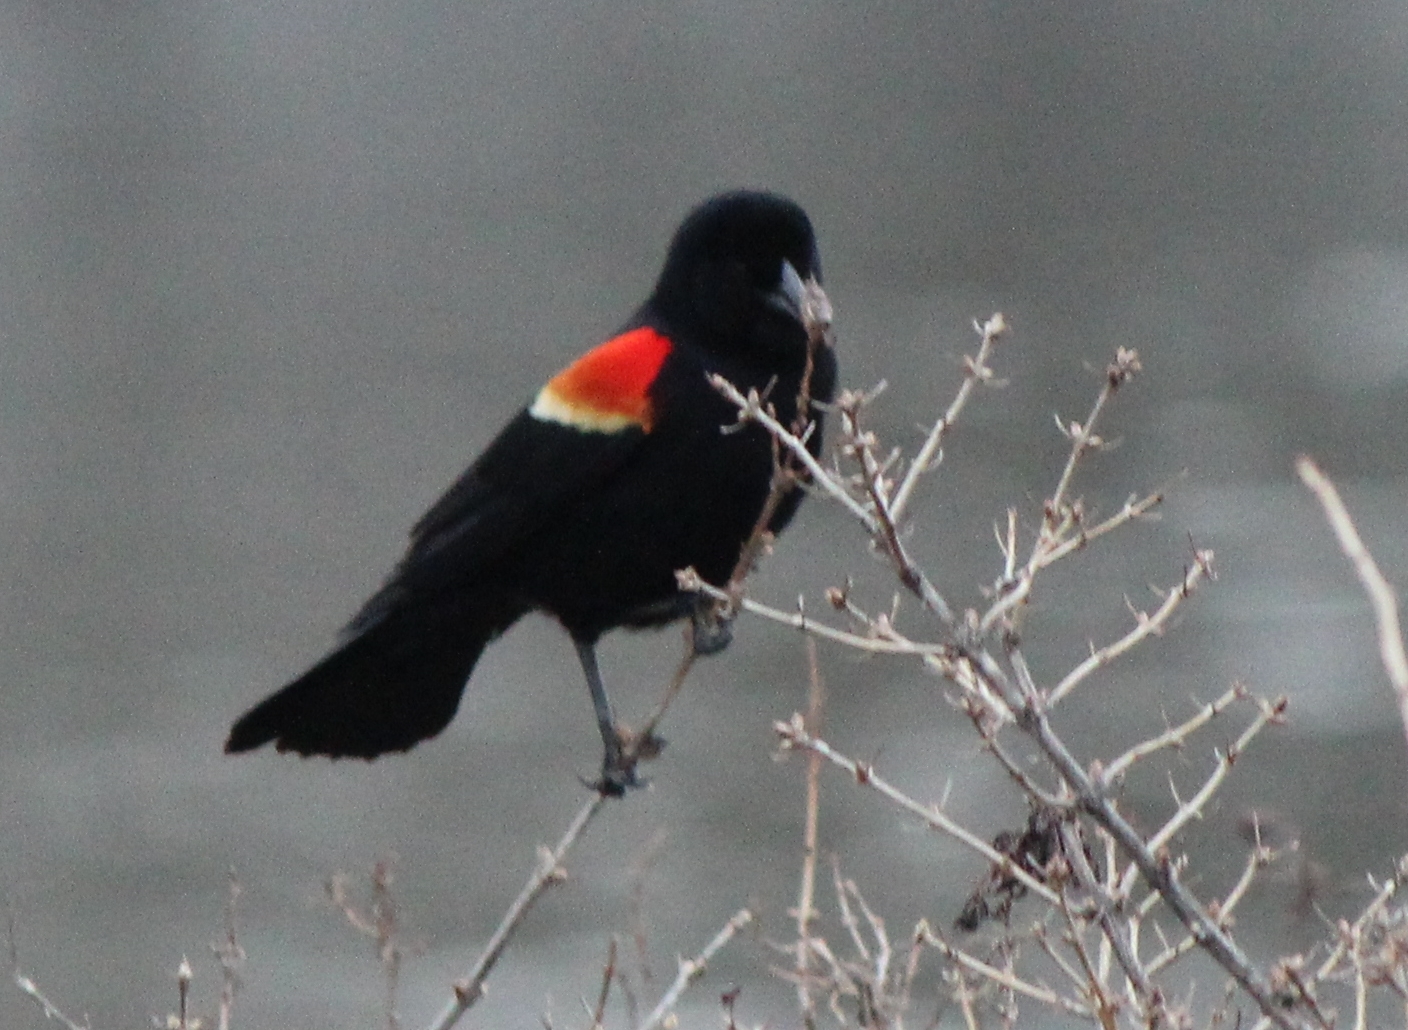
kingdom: Animalia
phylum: Chordata
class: Aves
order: Passeriformes
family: Icteridae
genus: Agelaius
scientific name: Agelaius phoeniceus
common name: Red-winged blackbird
